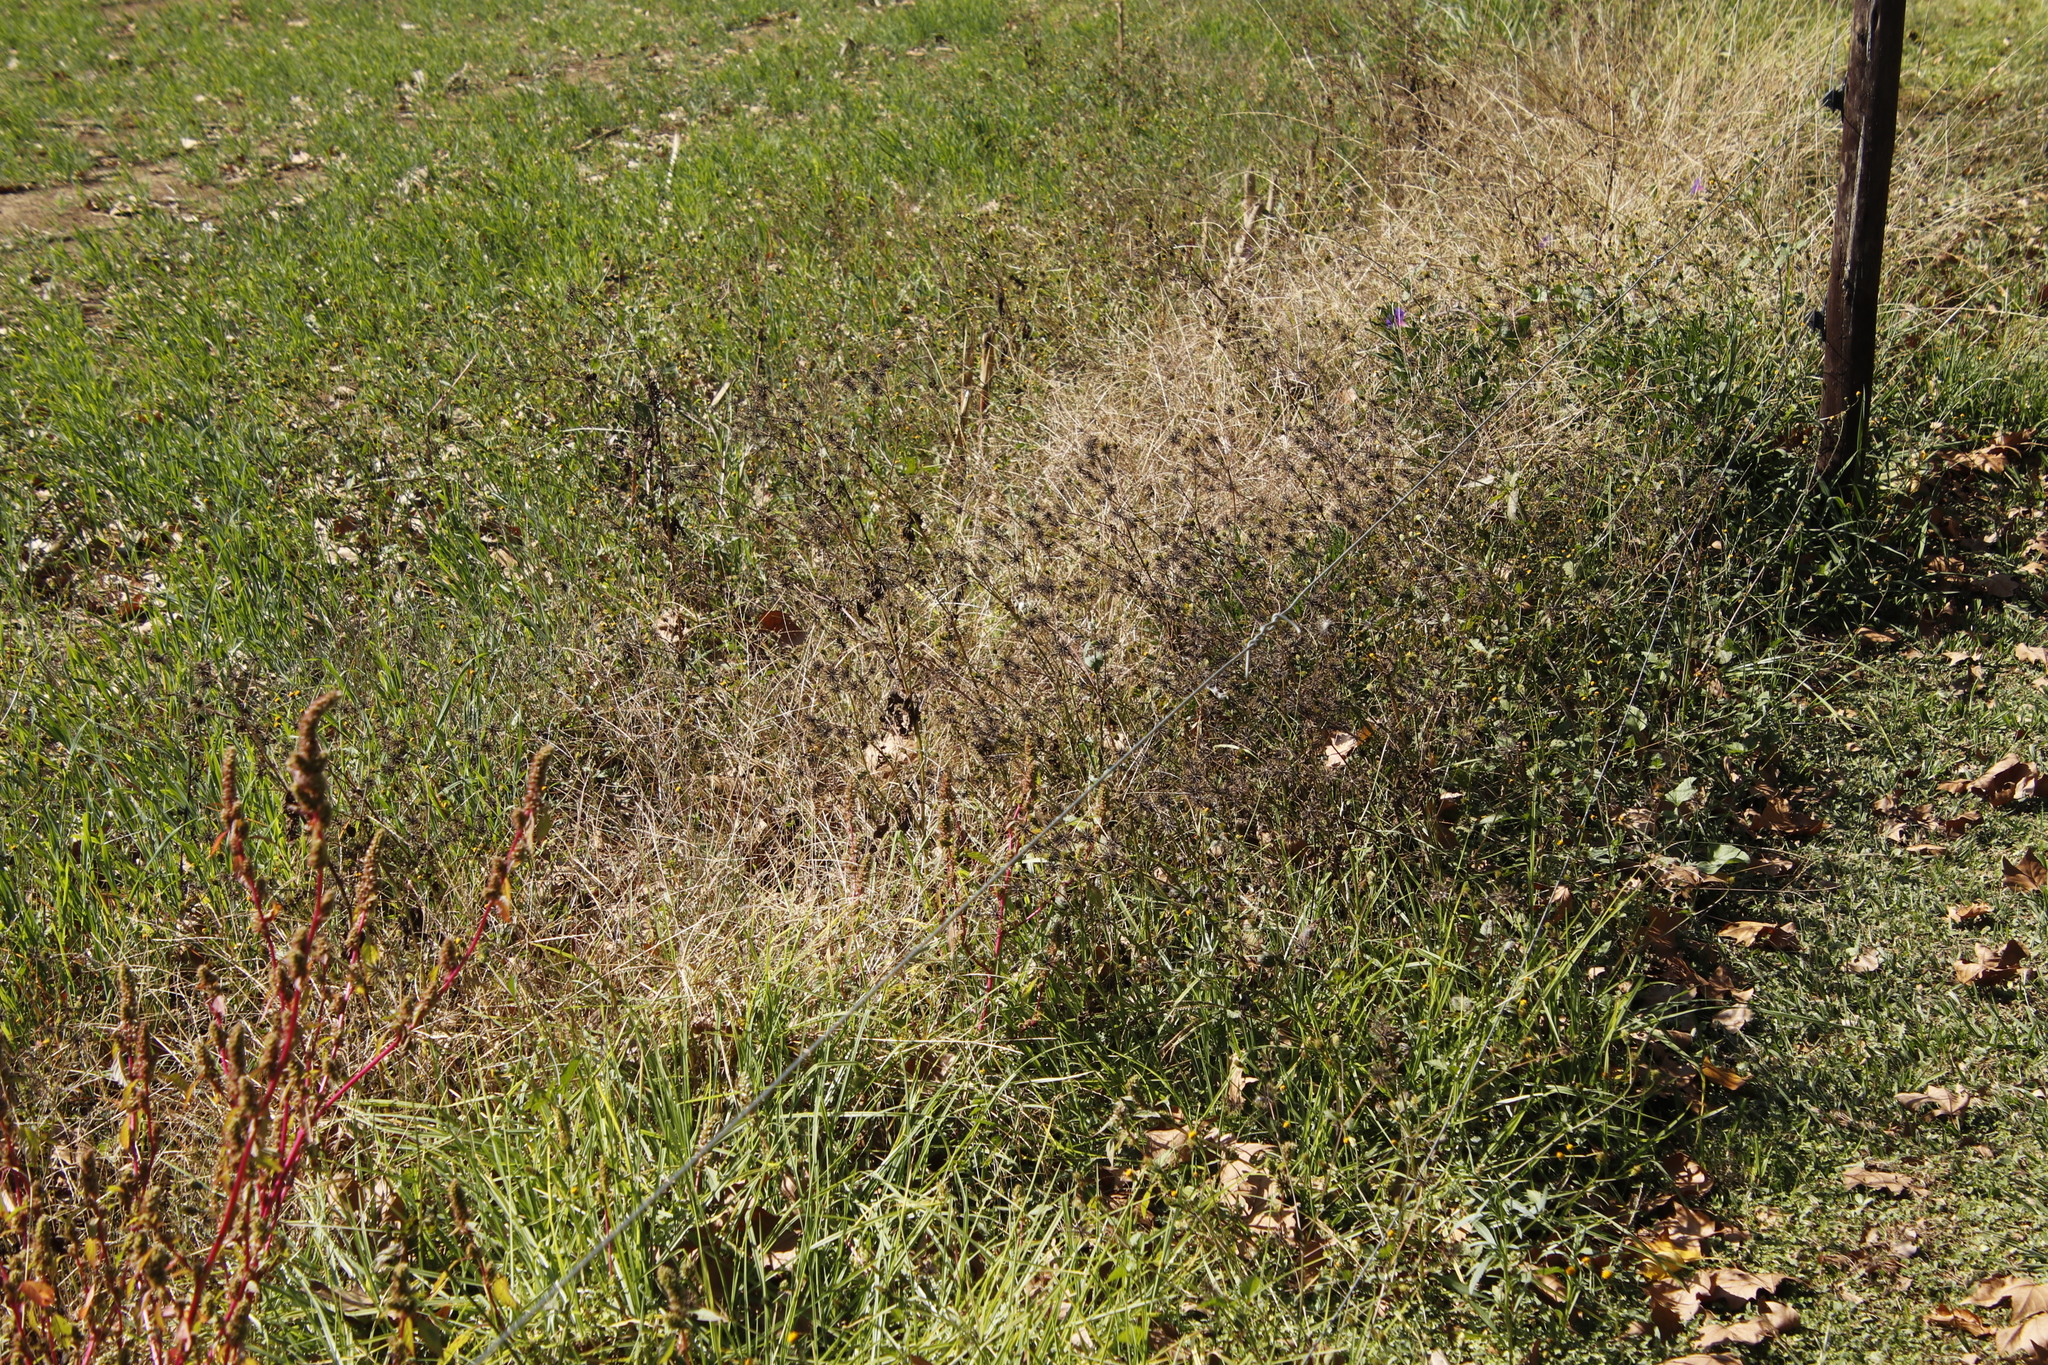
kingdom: Plantae
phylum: Tracheophyta
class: Magnoliopsida
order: Asterales
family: Asteraceae
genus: Bidens
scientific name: Bidens pilosa
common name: Black-jack
